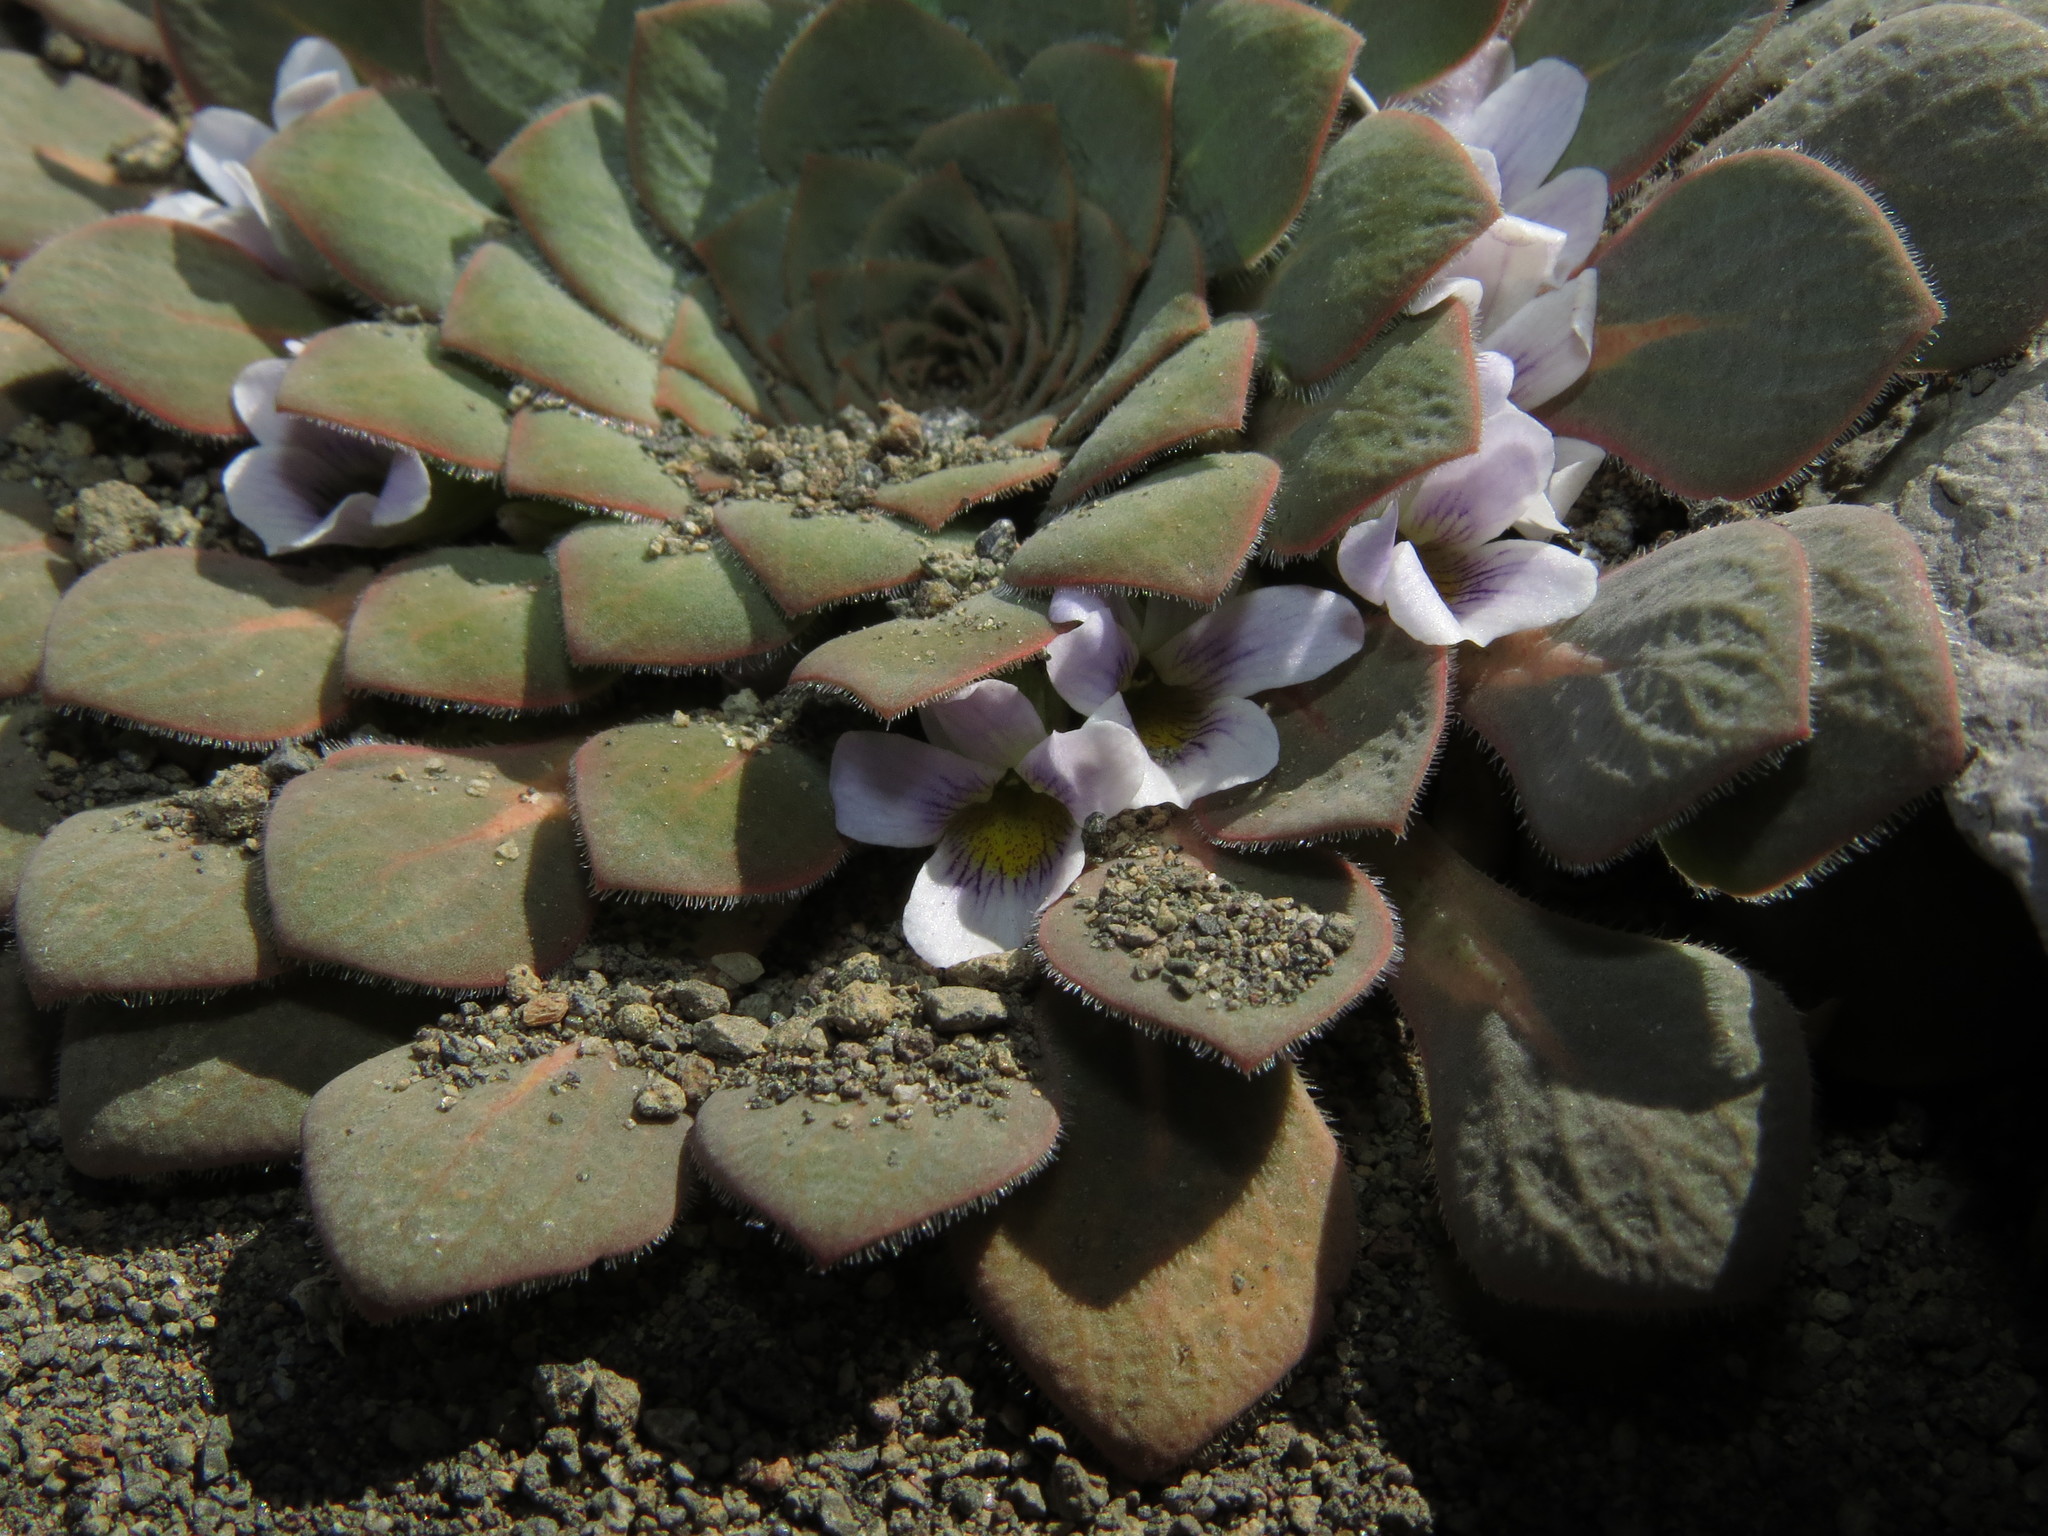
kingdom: Plantae
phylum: Tracheophyta
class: Magnoliopsida
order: Malpighiales
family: Violaceae
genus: Viola
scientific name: Viola rosulata
